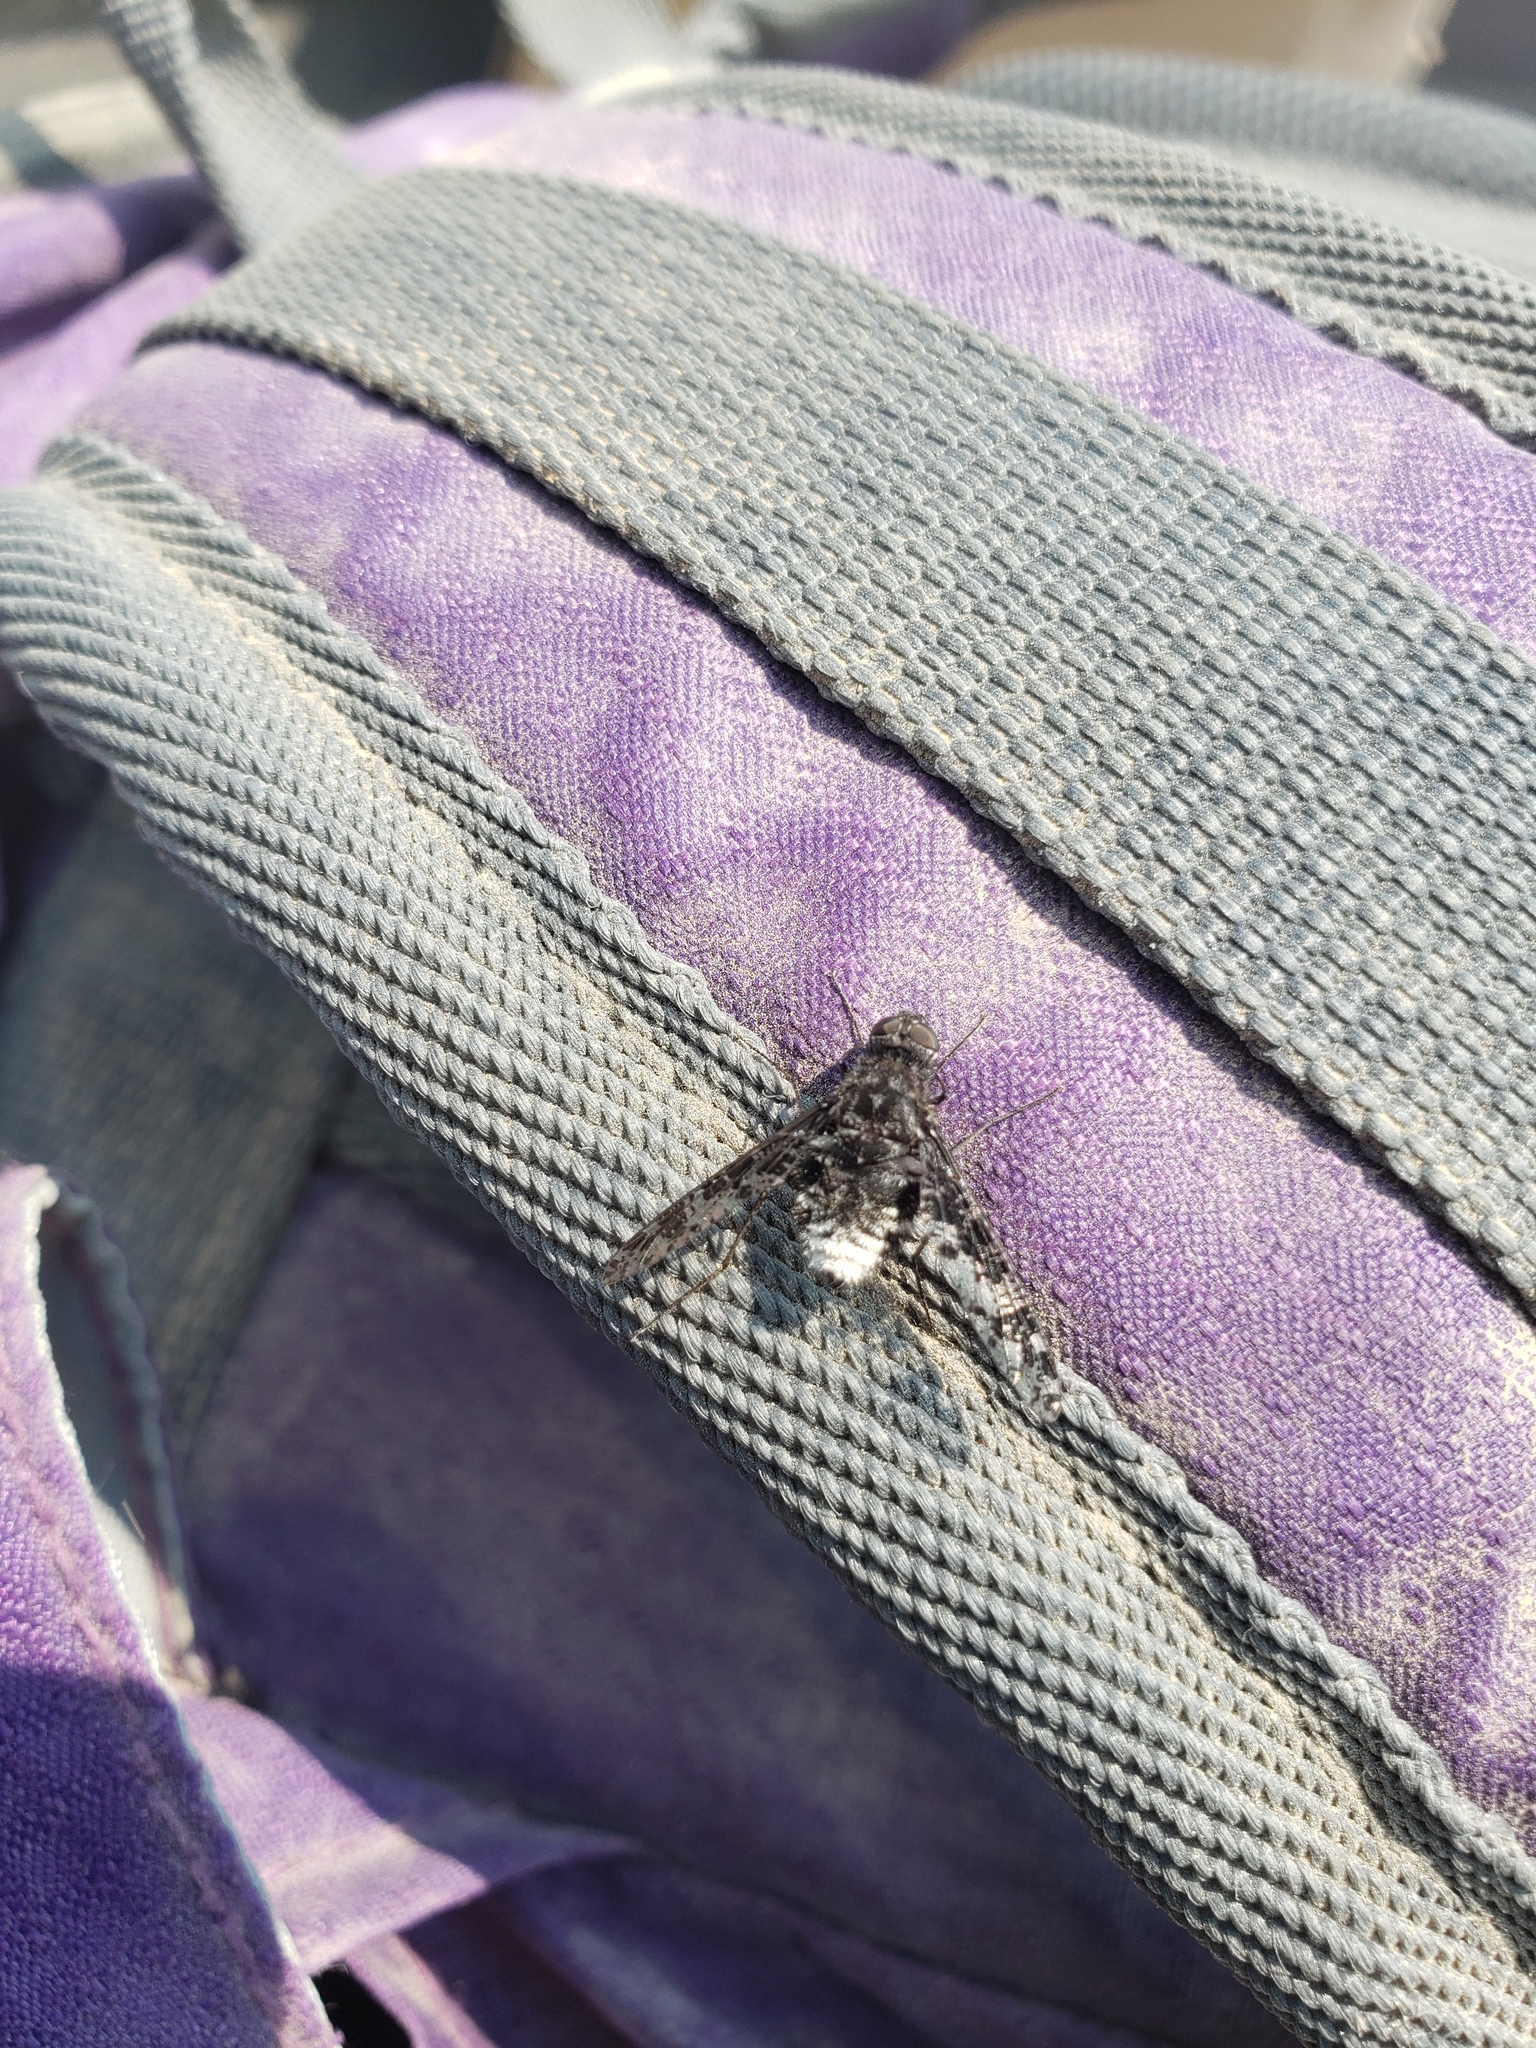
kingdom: Animalia
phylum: Arthropoda
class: Insecta
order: Diptera
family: Bombyliidae
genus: Anthrax
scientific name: Anthrax irroratus
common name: Spotted bee fly
